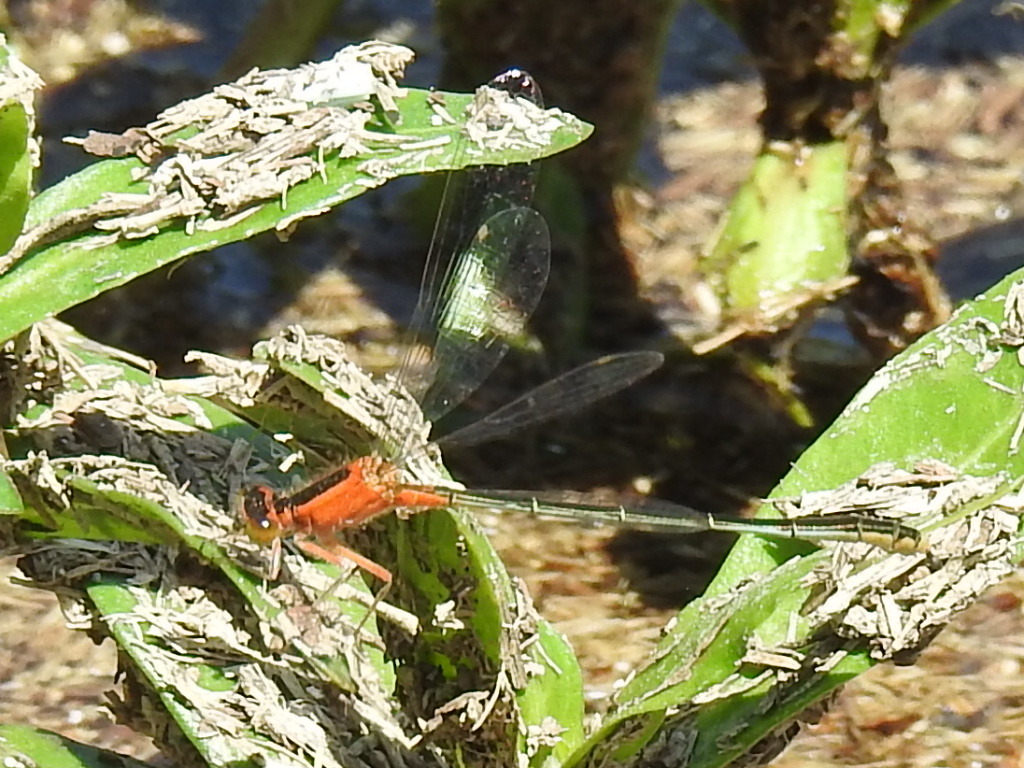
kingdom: Animalia
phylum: Arthropoda
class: Insecta
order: Odonata
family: Coenagrionidae
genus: Ischnura
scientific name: Ischnura ramburii
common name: Rambur's forktail
